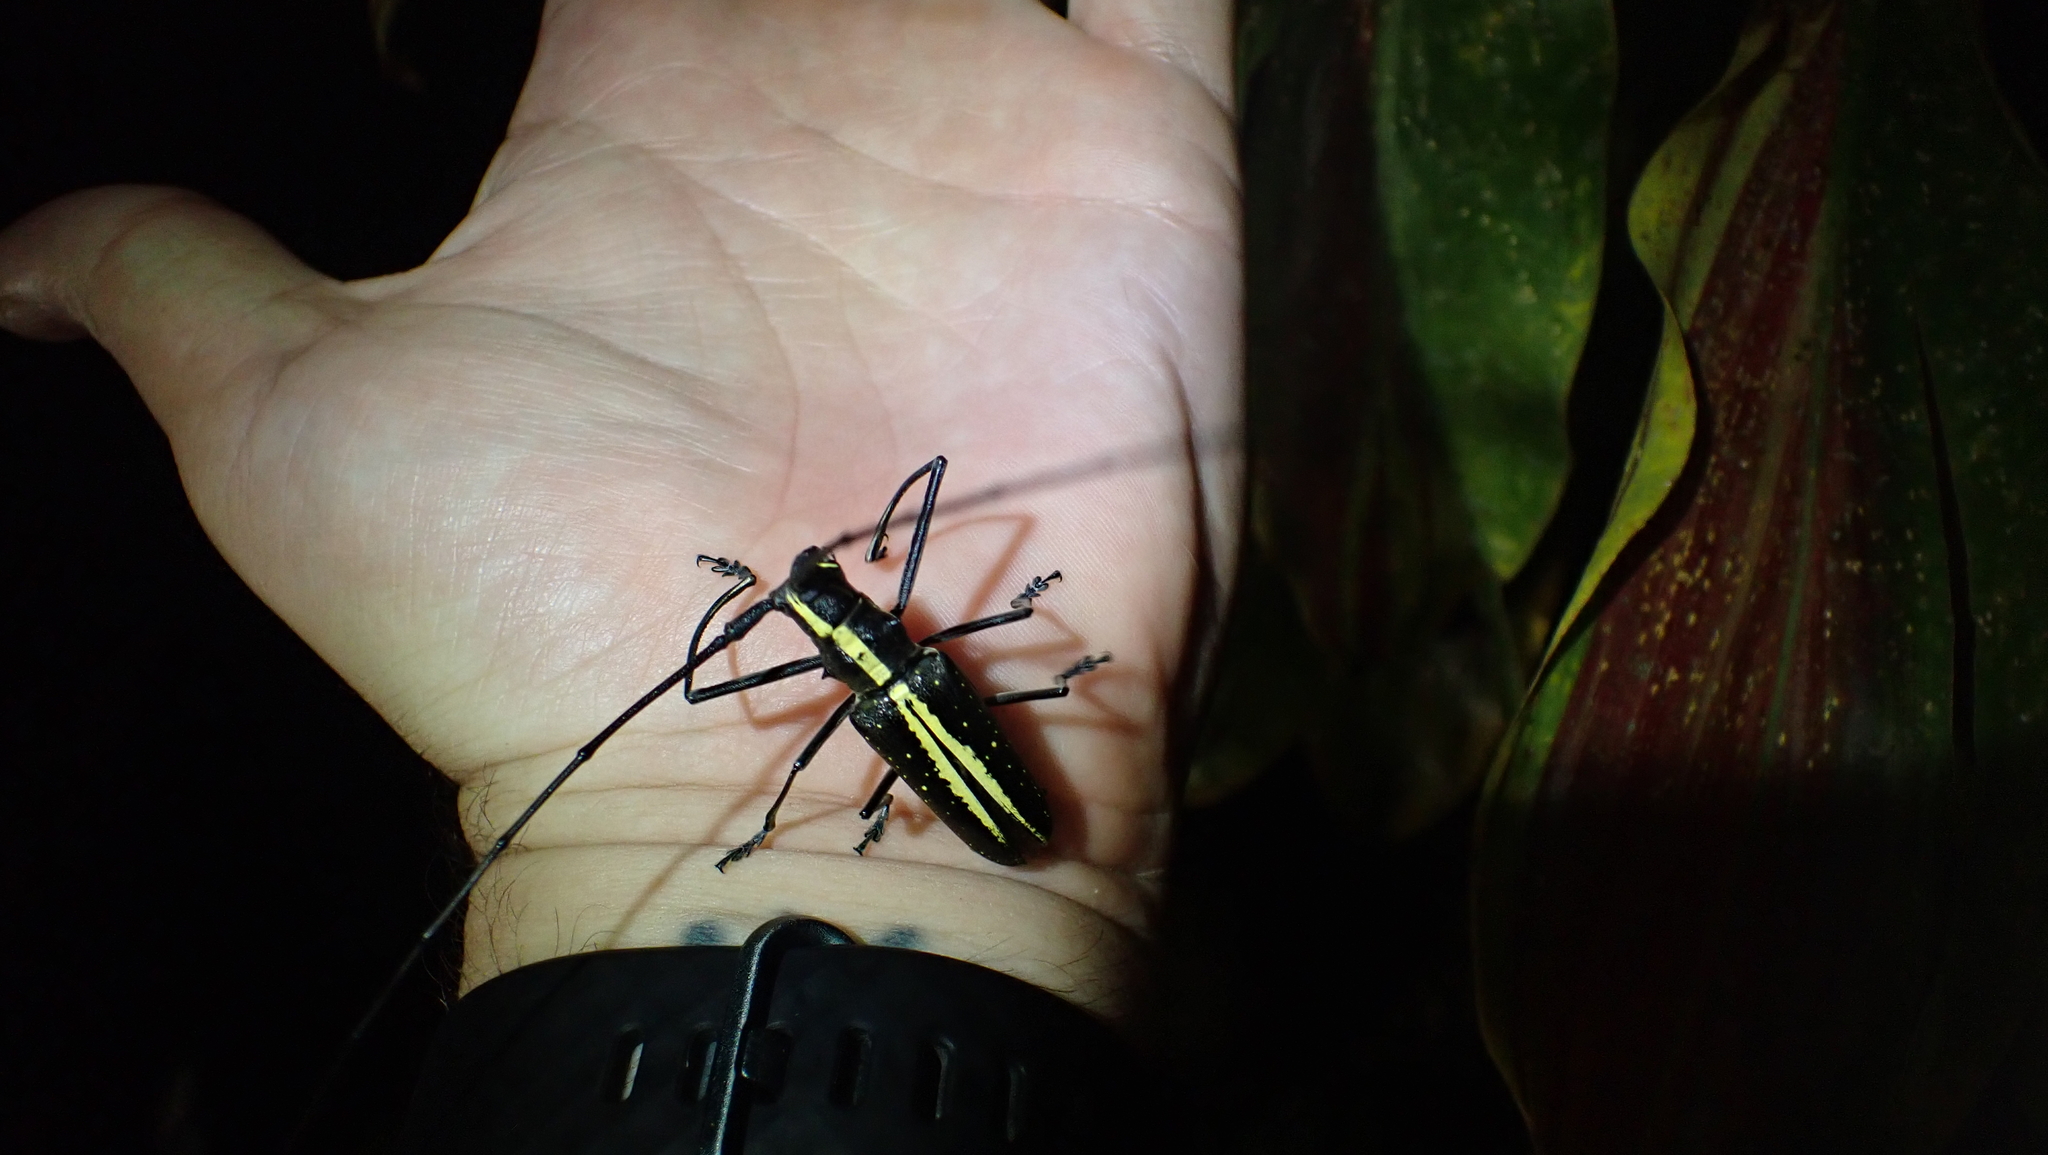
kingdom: Animalia
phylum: Arthropoda
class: Insecta
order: Coleoptera
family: Cerambycidae
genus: Taeniotes
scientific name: Taeniotes scalatus
